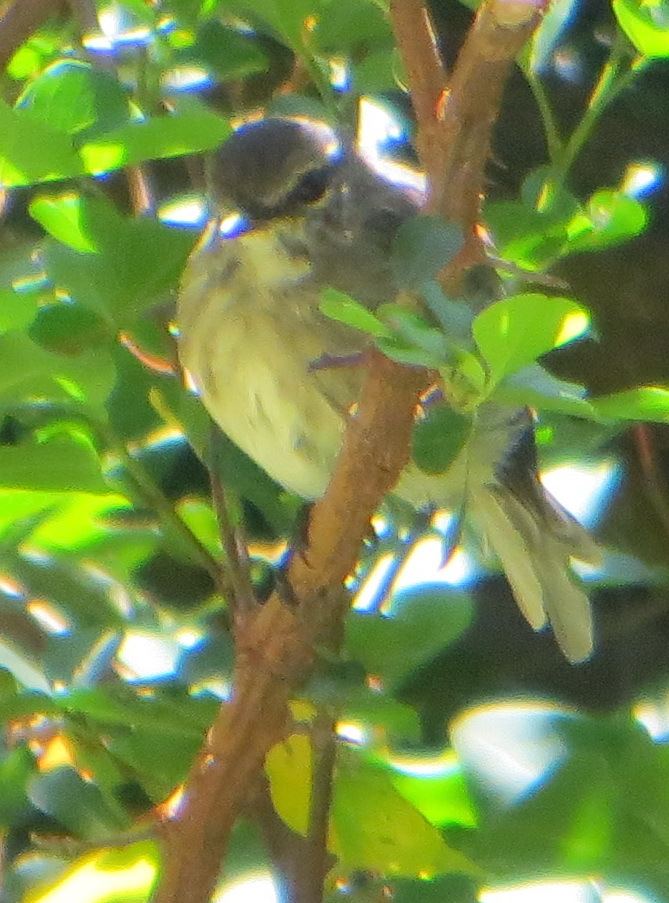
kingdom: Animalia
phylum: Chordata
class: Aves
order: Passeriformes
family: Muscicapidae
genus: Muscicapa
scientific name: Muscicapa adusta
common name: African dusky flycatcher
